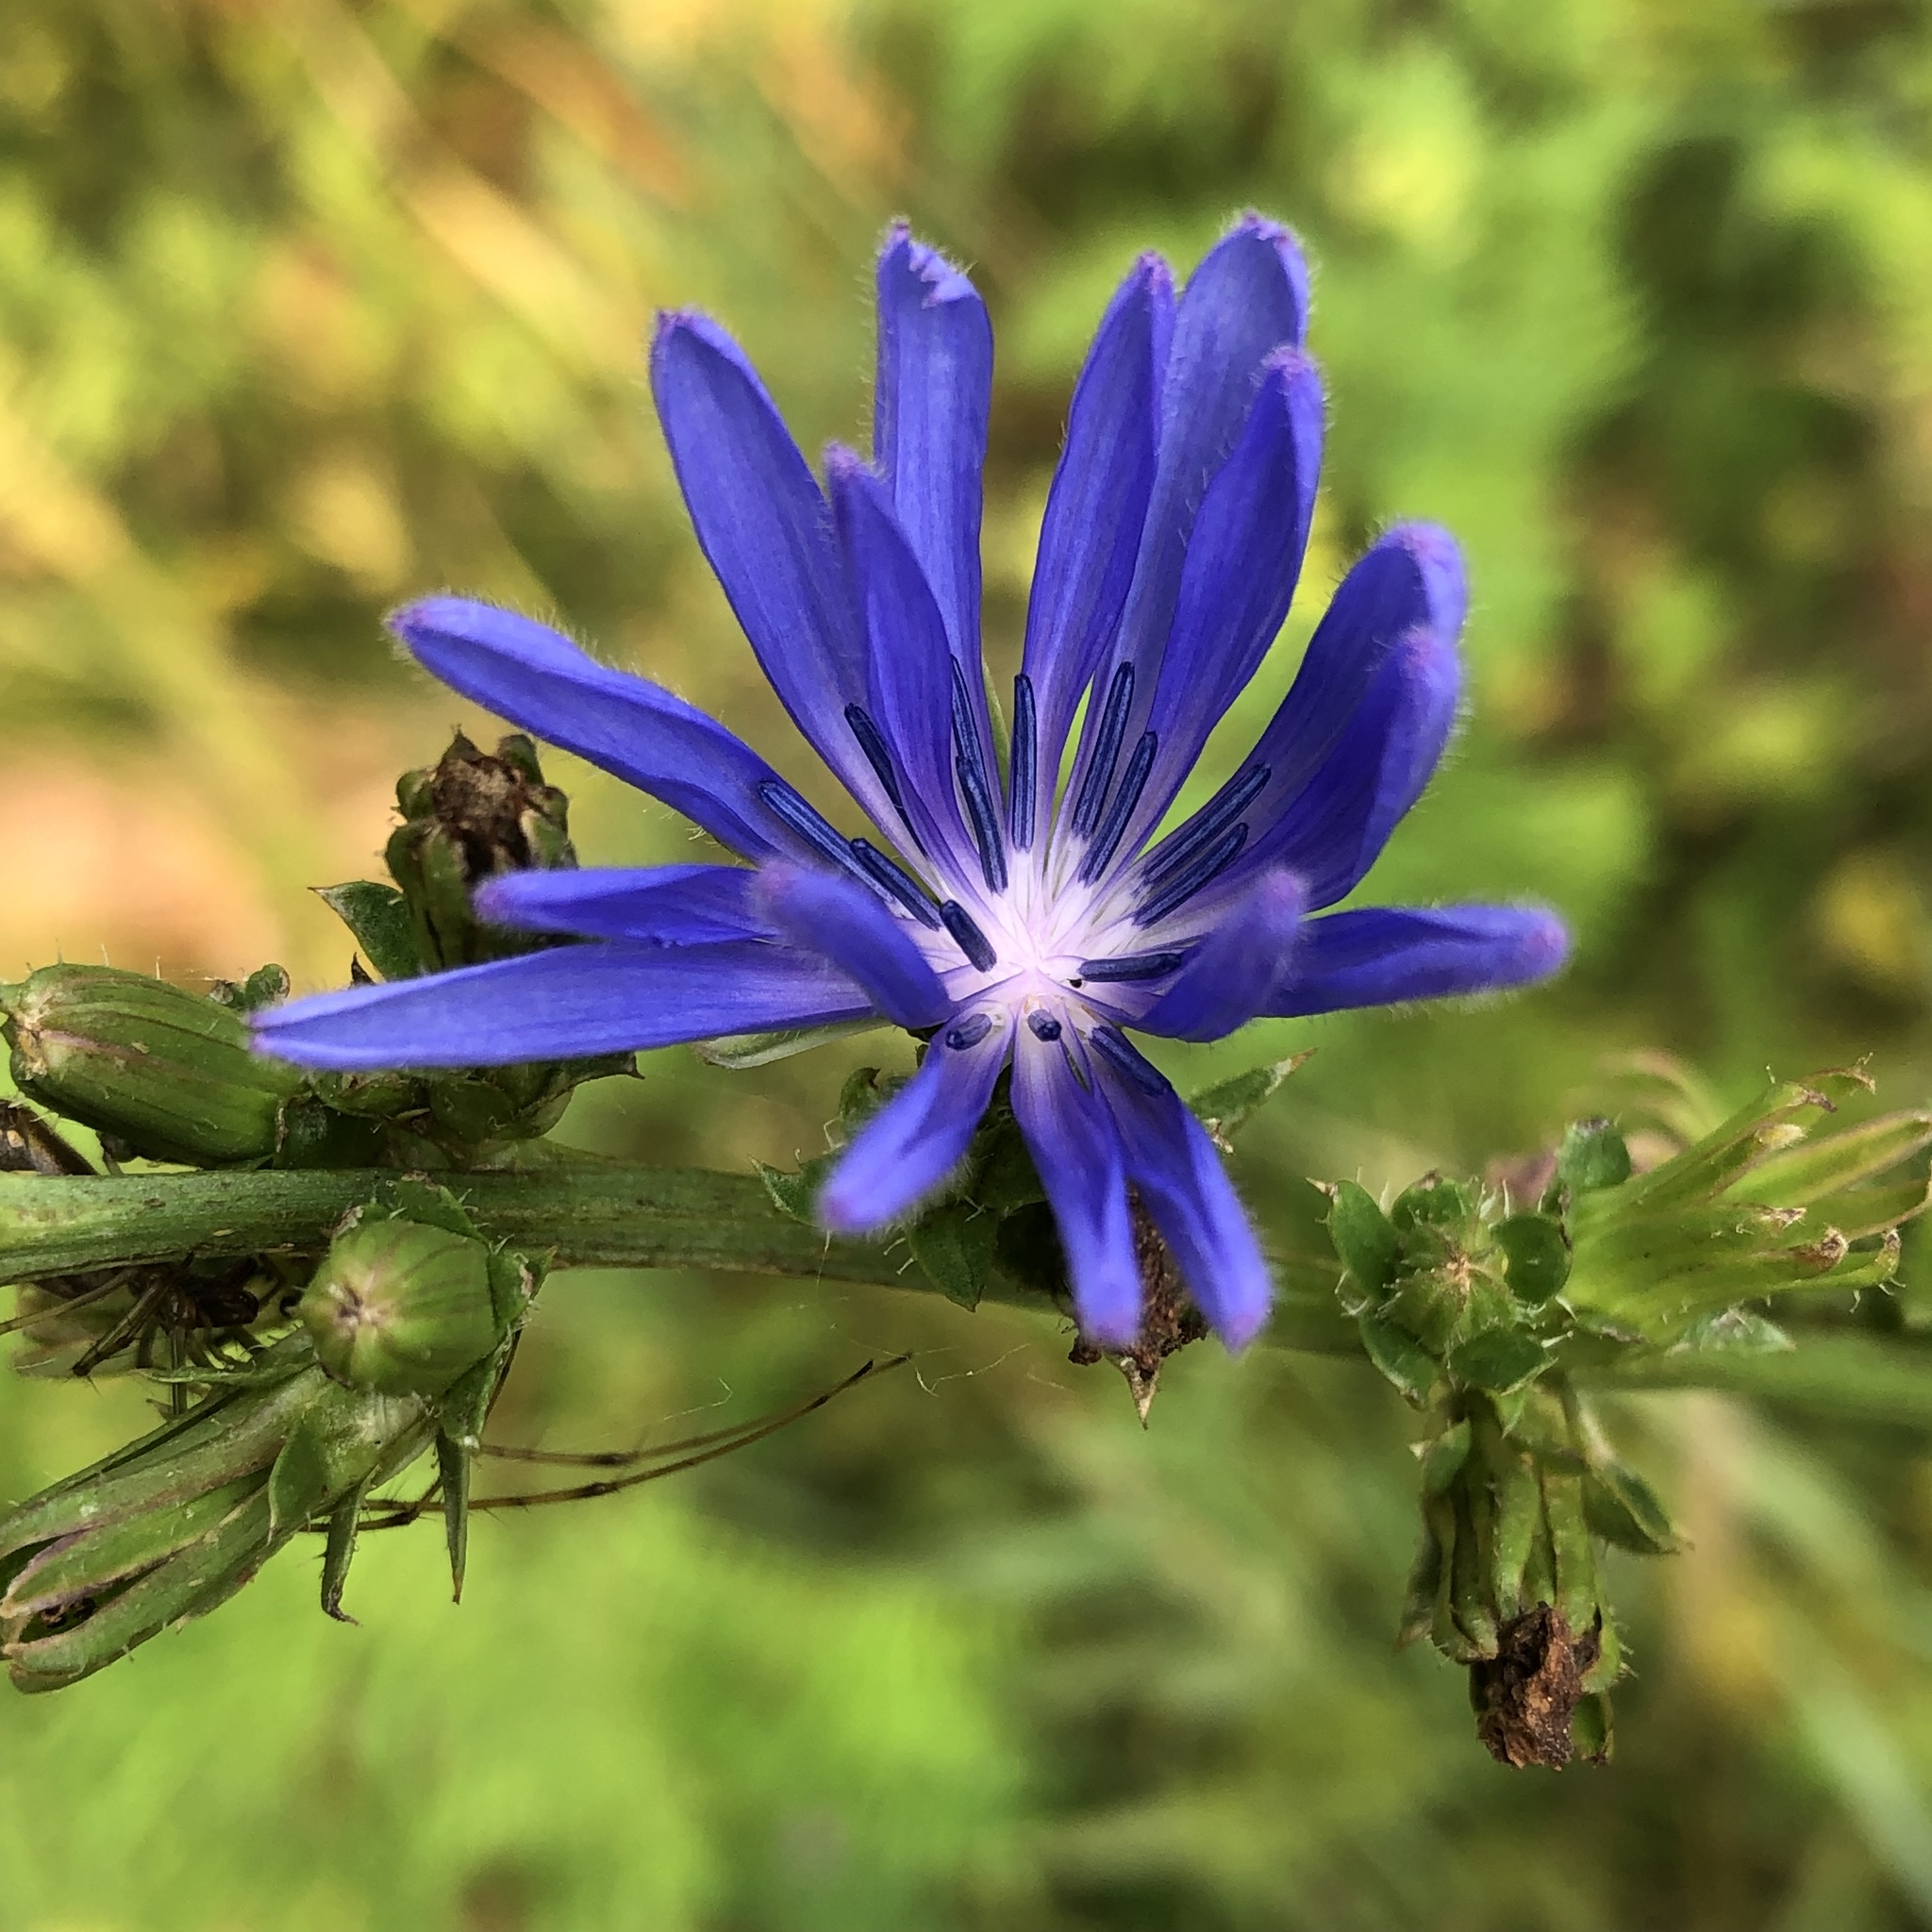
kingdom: Plantae
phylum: Tracheophyta
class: Magnoliopsida
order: Asterales
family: Asteraceae
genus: Cichorium
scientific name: Cichorium intybus
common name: Chicory
